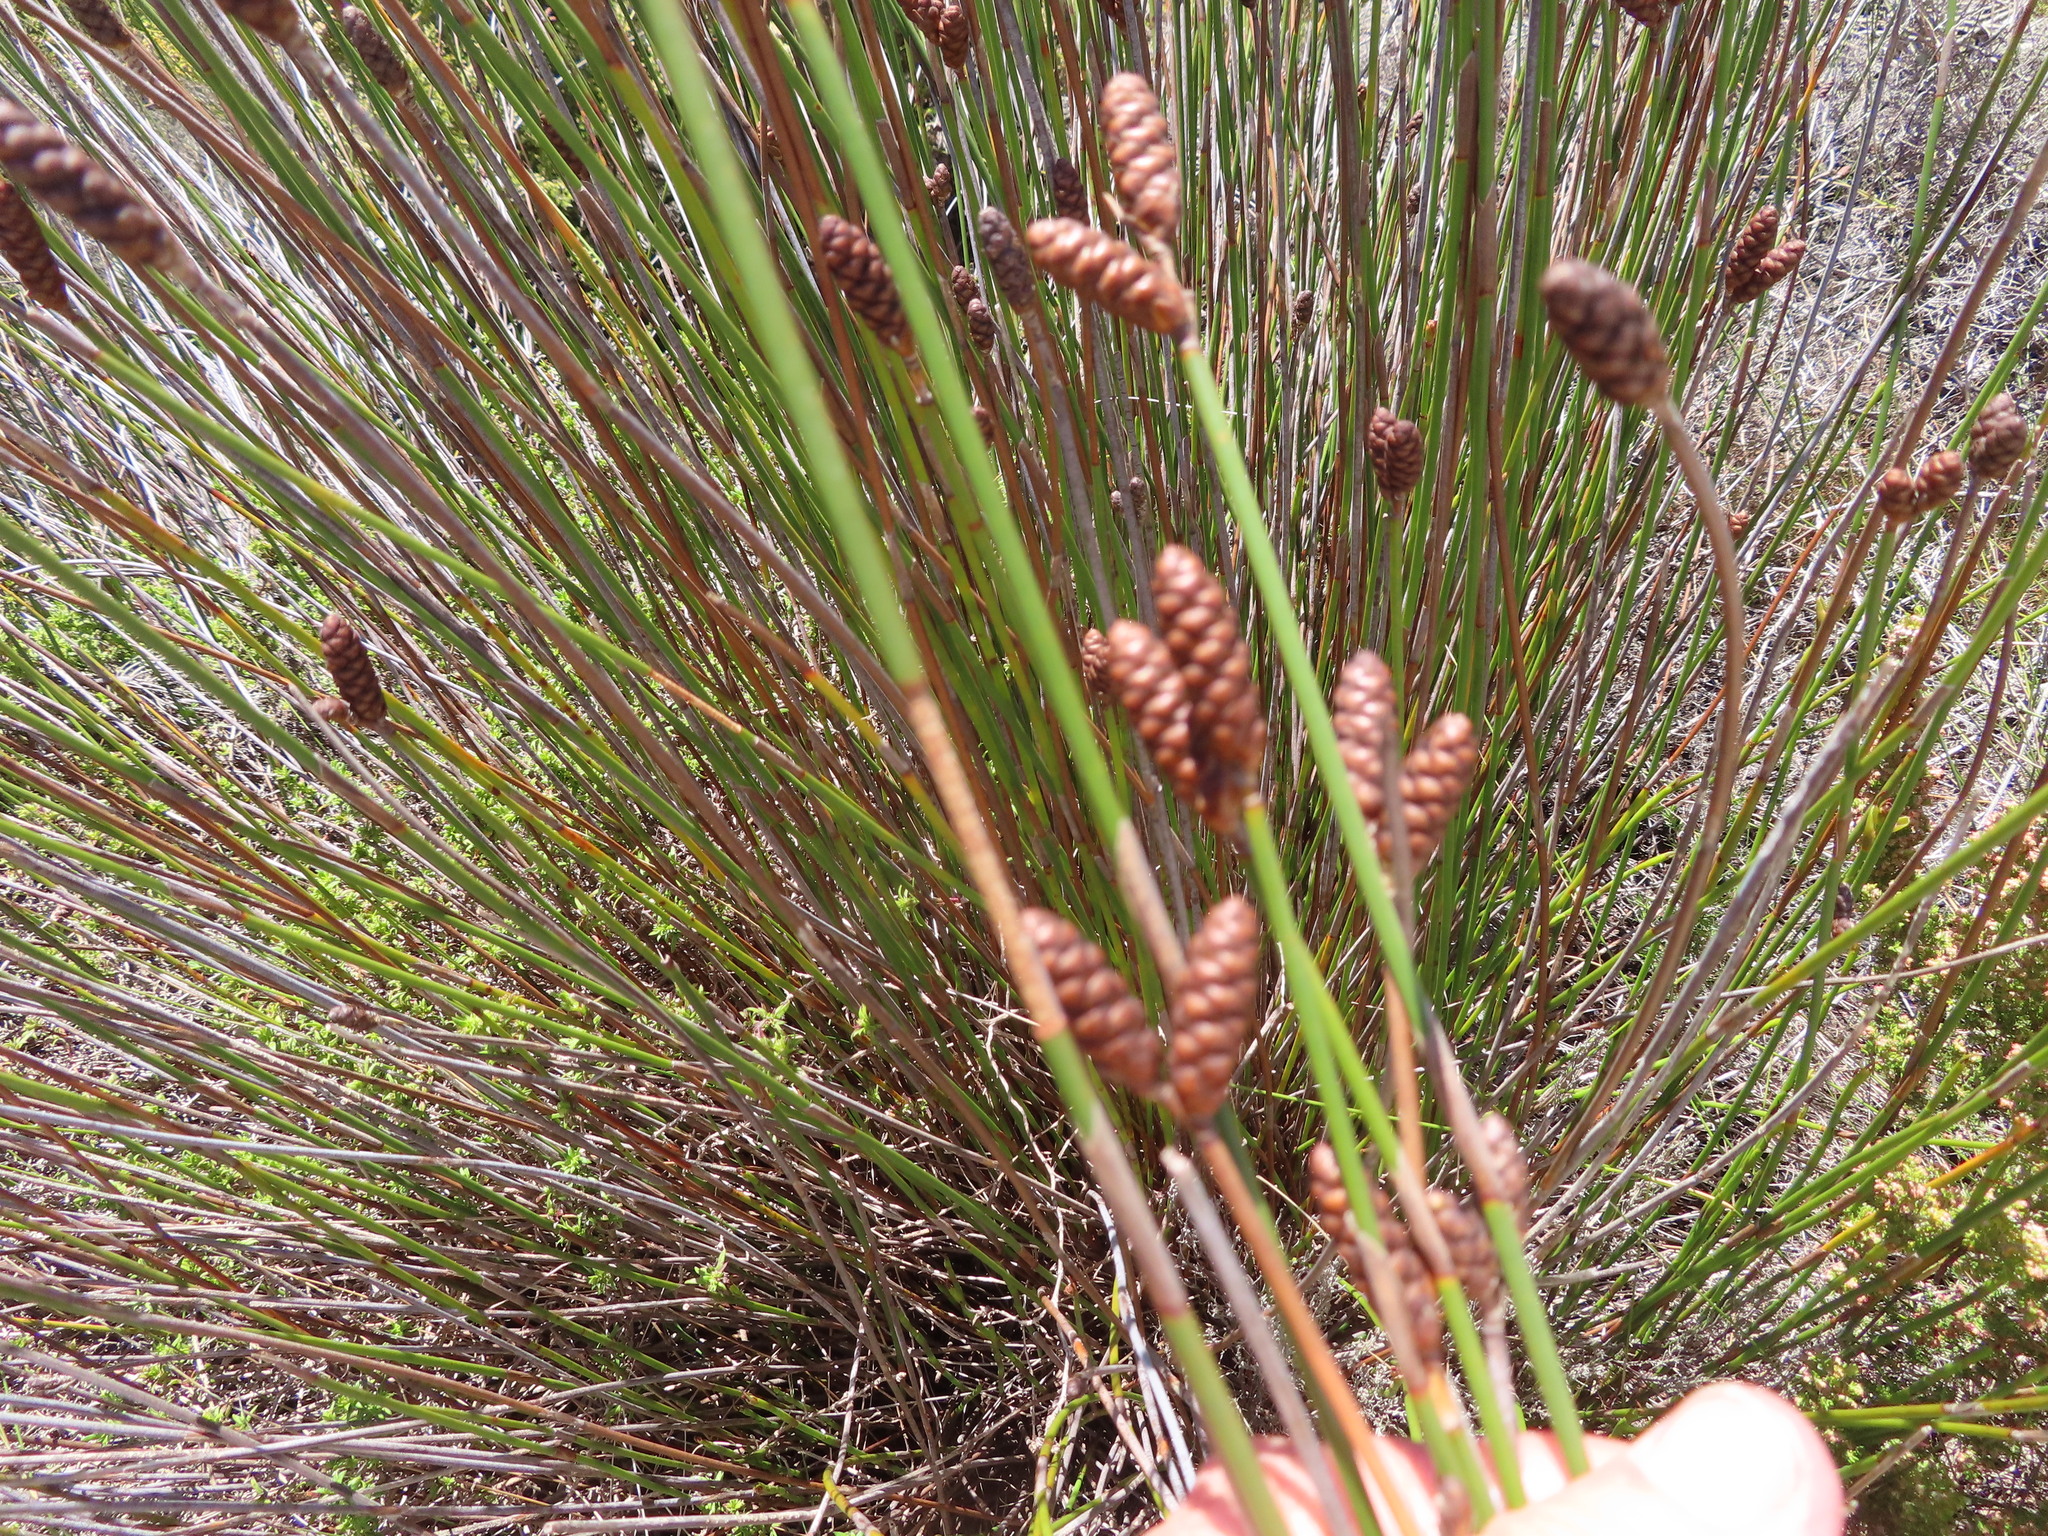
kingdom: Plantae
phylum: Tracheophyta
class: Liliopsida
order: Poales
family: Restionaceae
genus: Nevillea
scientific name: Nevillea obtusissimus
